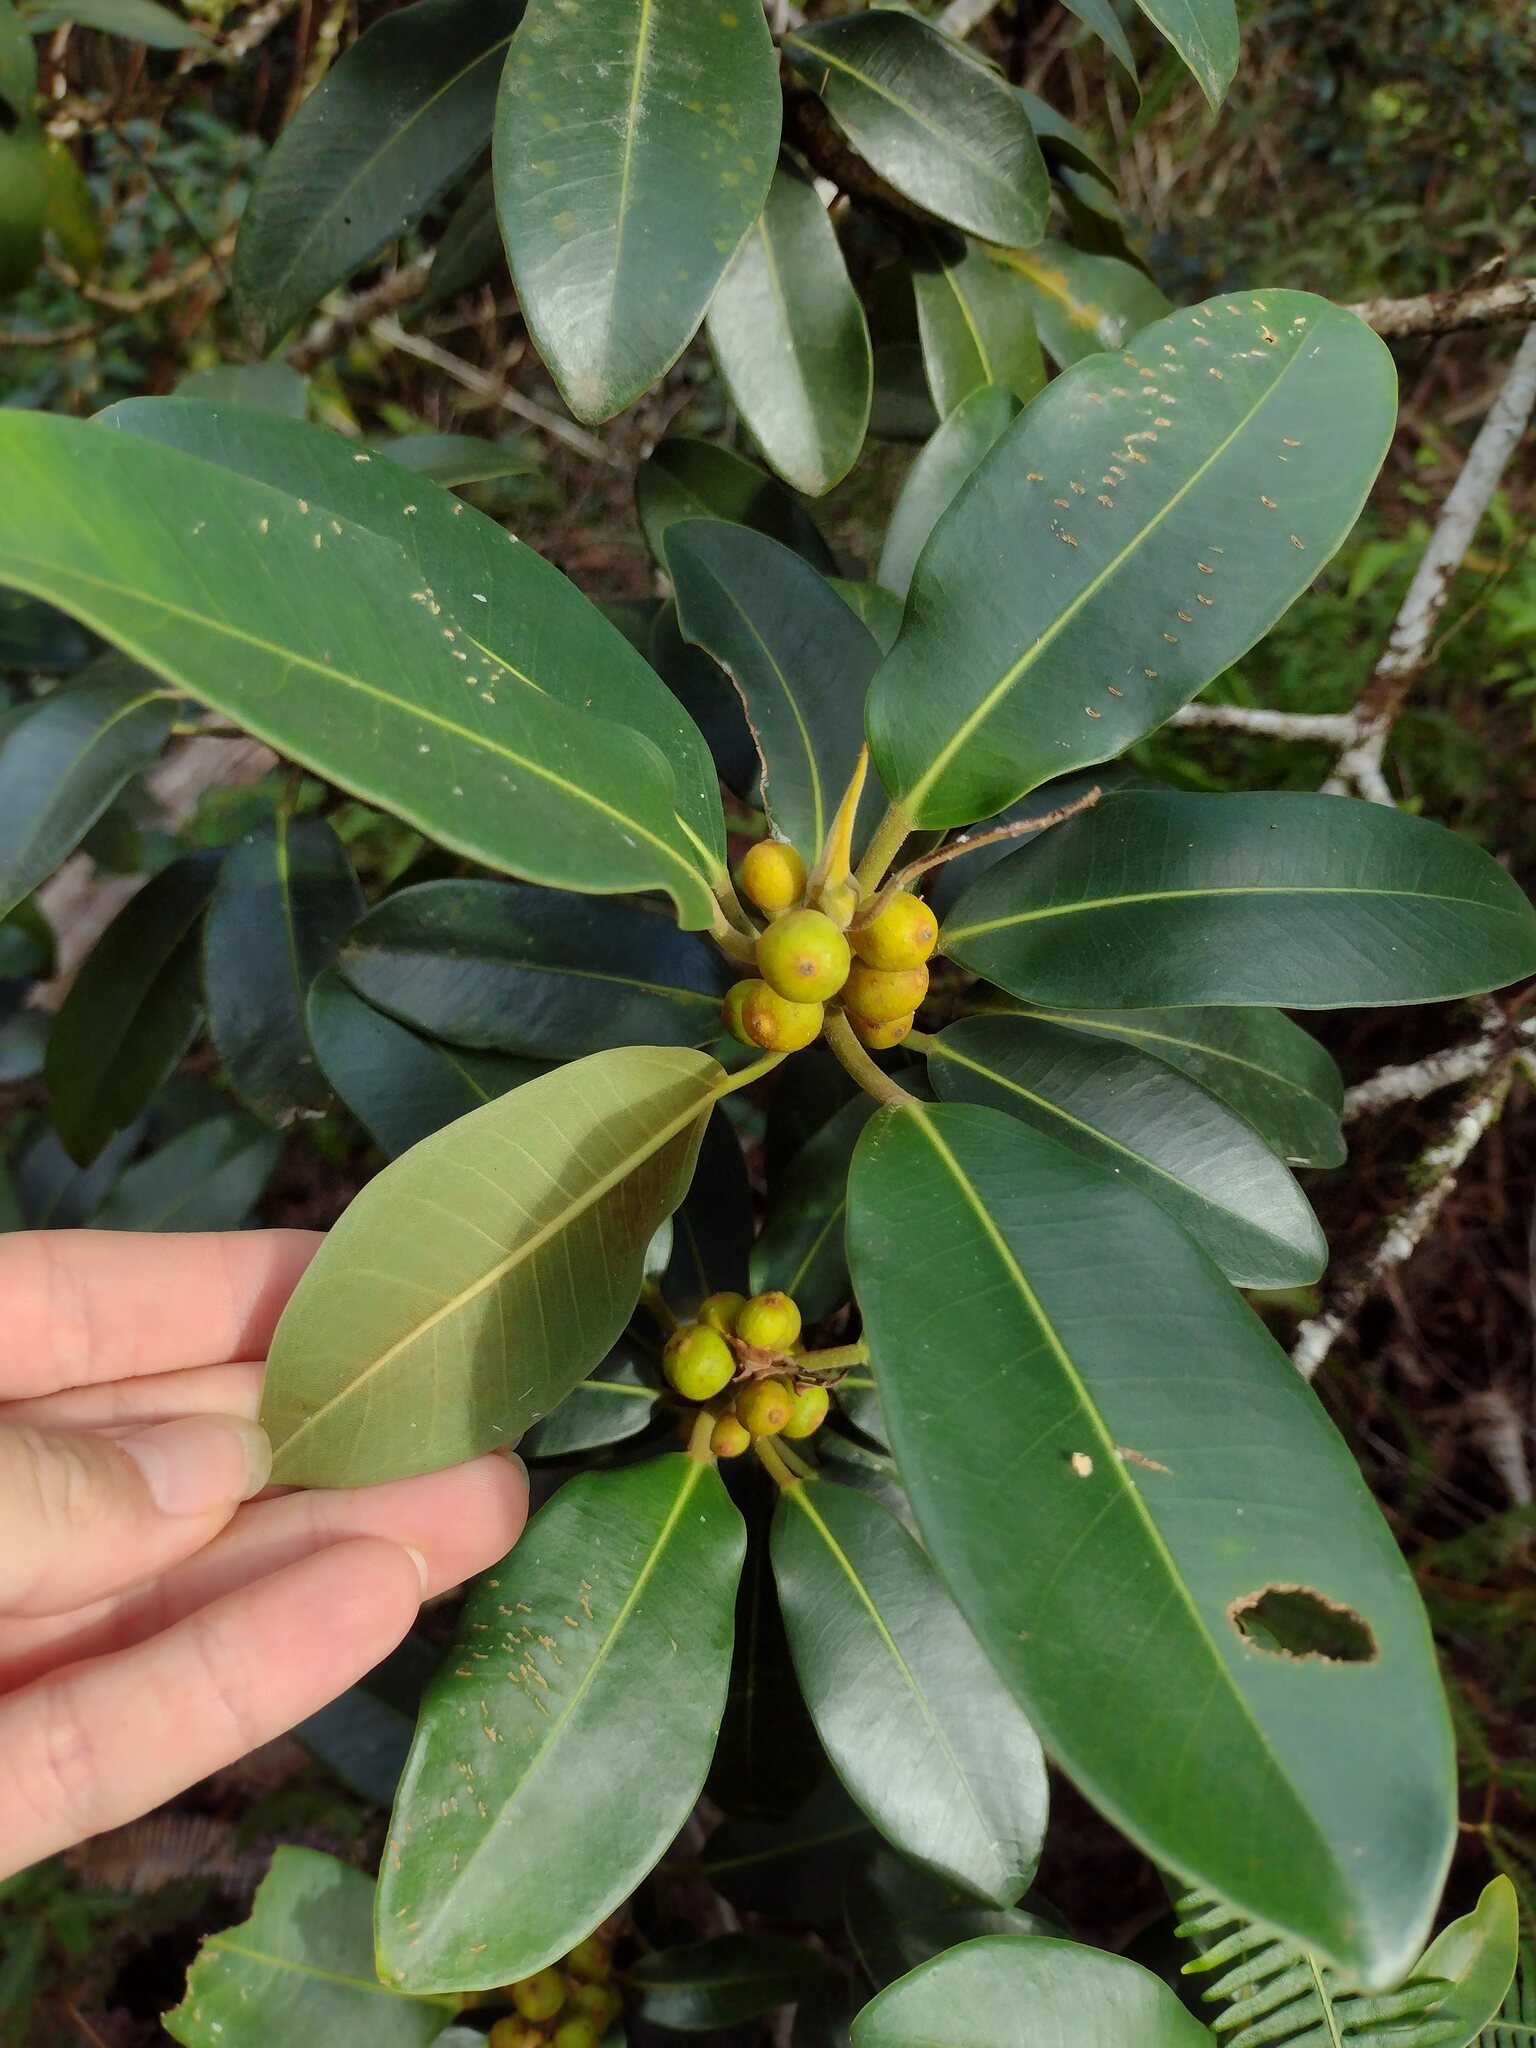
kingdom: Plantae
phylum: Tracheophyta
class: Magnoliopsida
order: Rosales
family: Moraceae
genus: Ficus
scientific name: Ficus rubiginosa
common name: Port jackson fig
